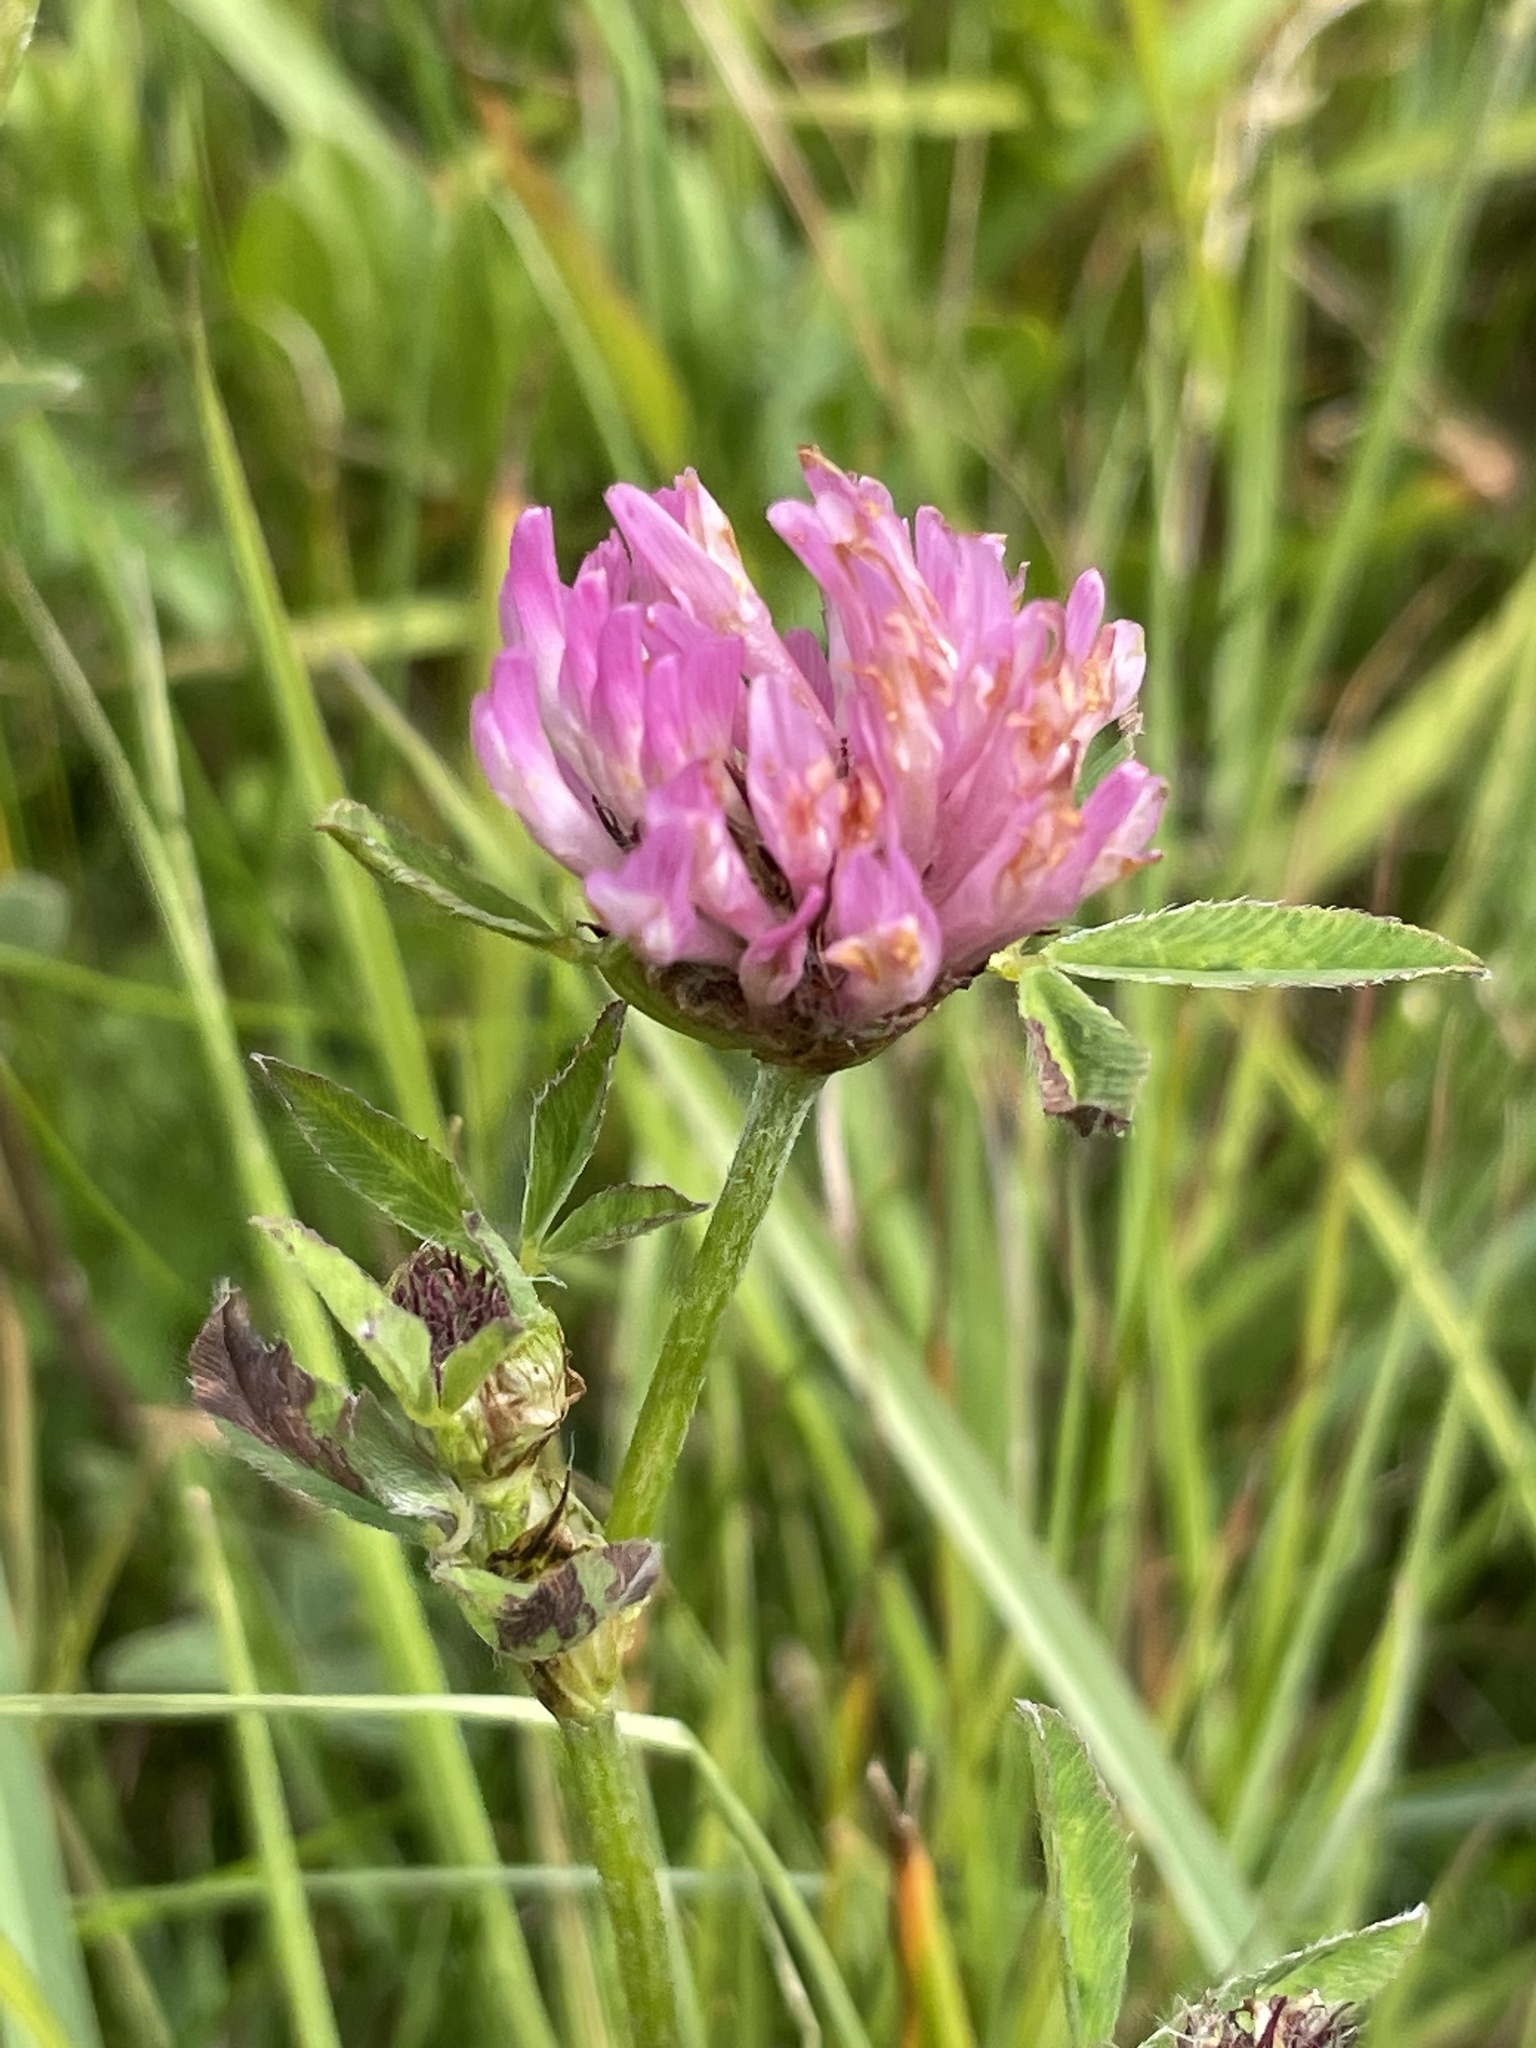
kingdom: Plantae
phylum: Tracheophyta
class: Magnoliopsida
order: Fabales
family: Fabaceae
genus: Trifolium
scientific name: Trifolium pratense
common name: Red clover
